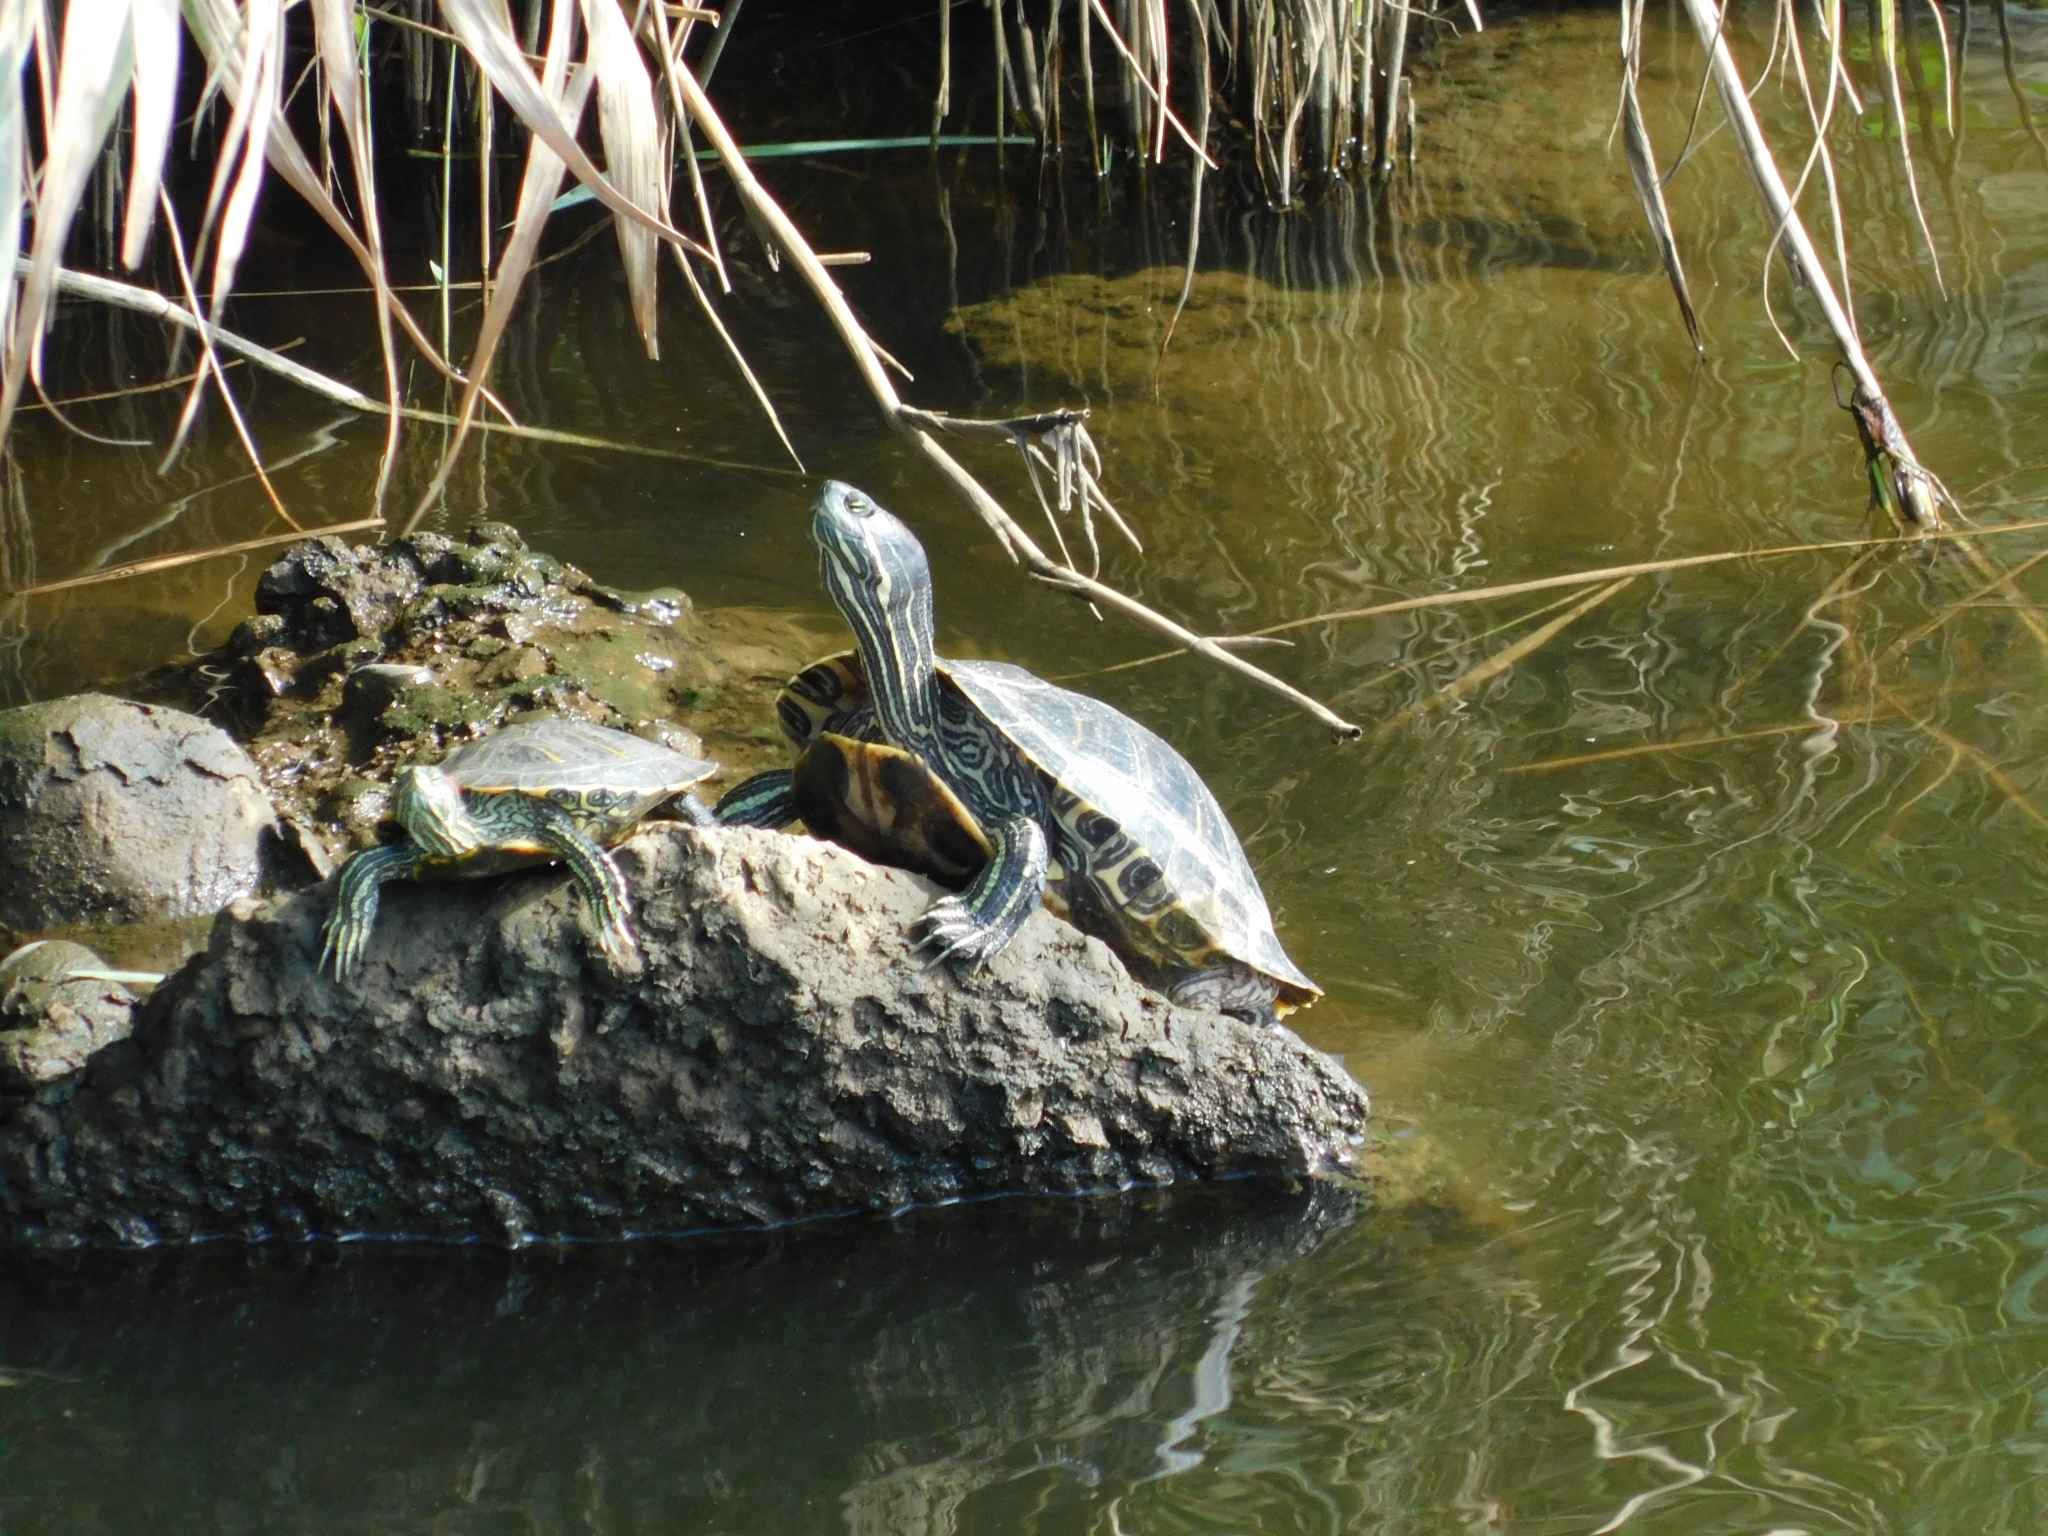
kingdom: Animalia
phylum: Chordata
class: Testudines
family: Emydidae
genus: Trachemys
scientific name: Trachemys scripta
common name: Slider
